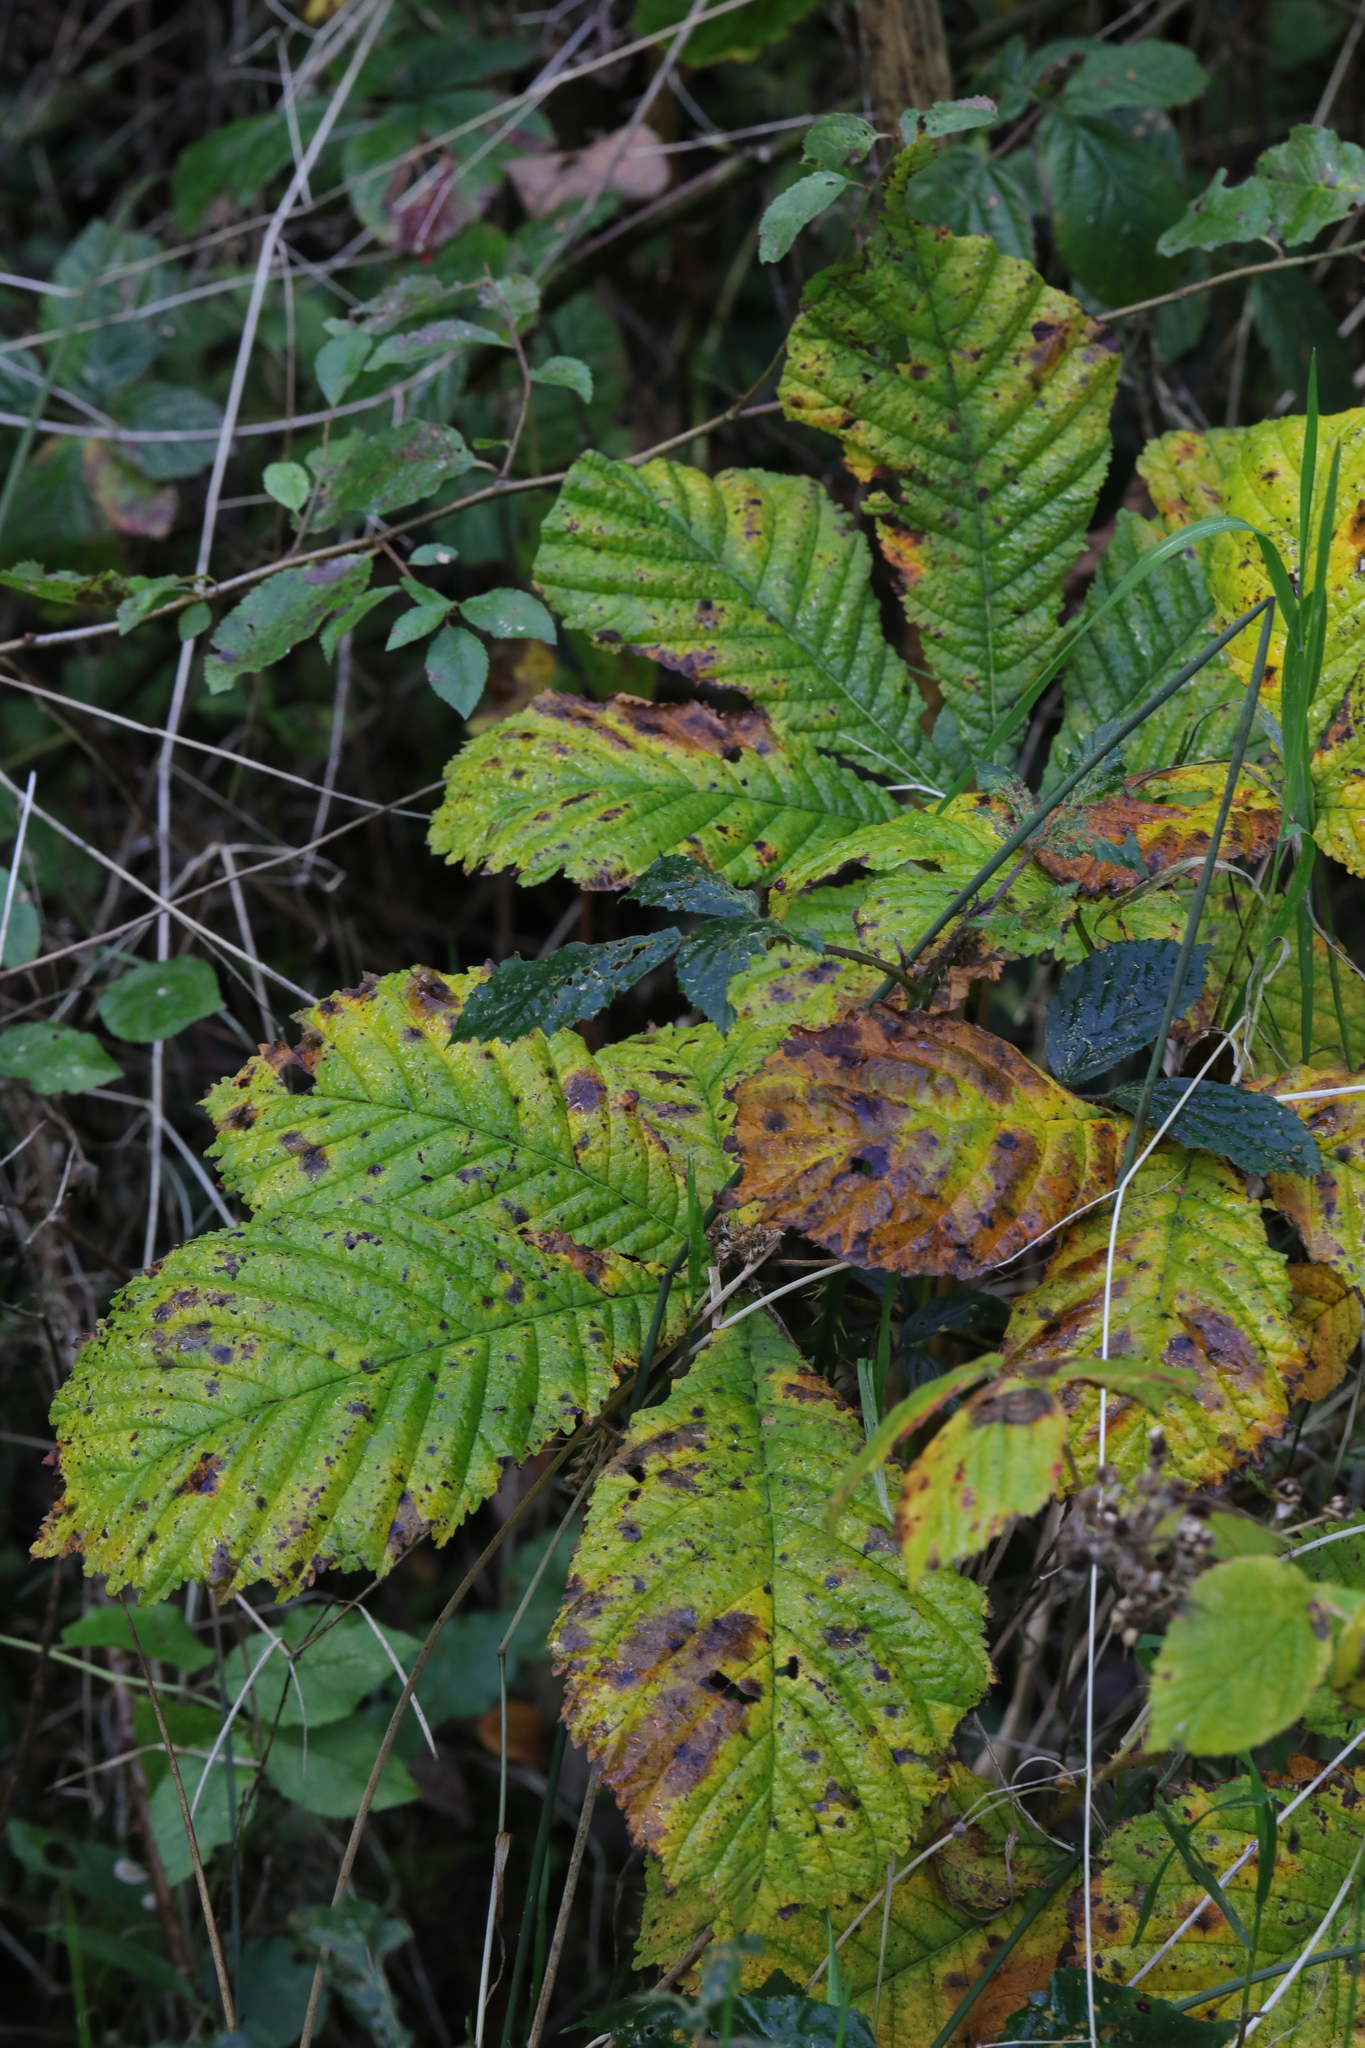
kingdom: Plantae
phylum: Tracheophyta
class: Magnoliopsida
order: Sapindales
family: Sapindaceae
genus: Aesculus
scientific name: Aesculus hippocastanum
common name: Horse-chestnut
